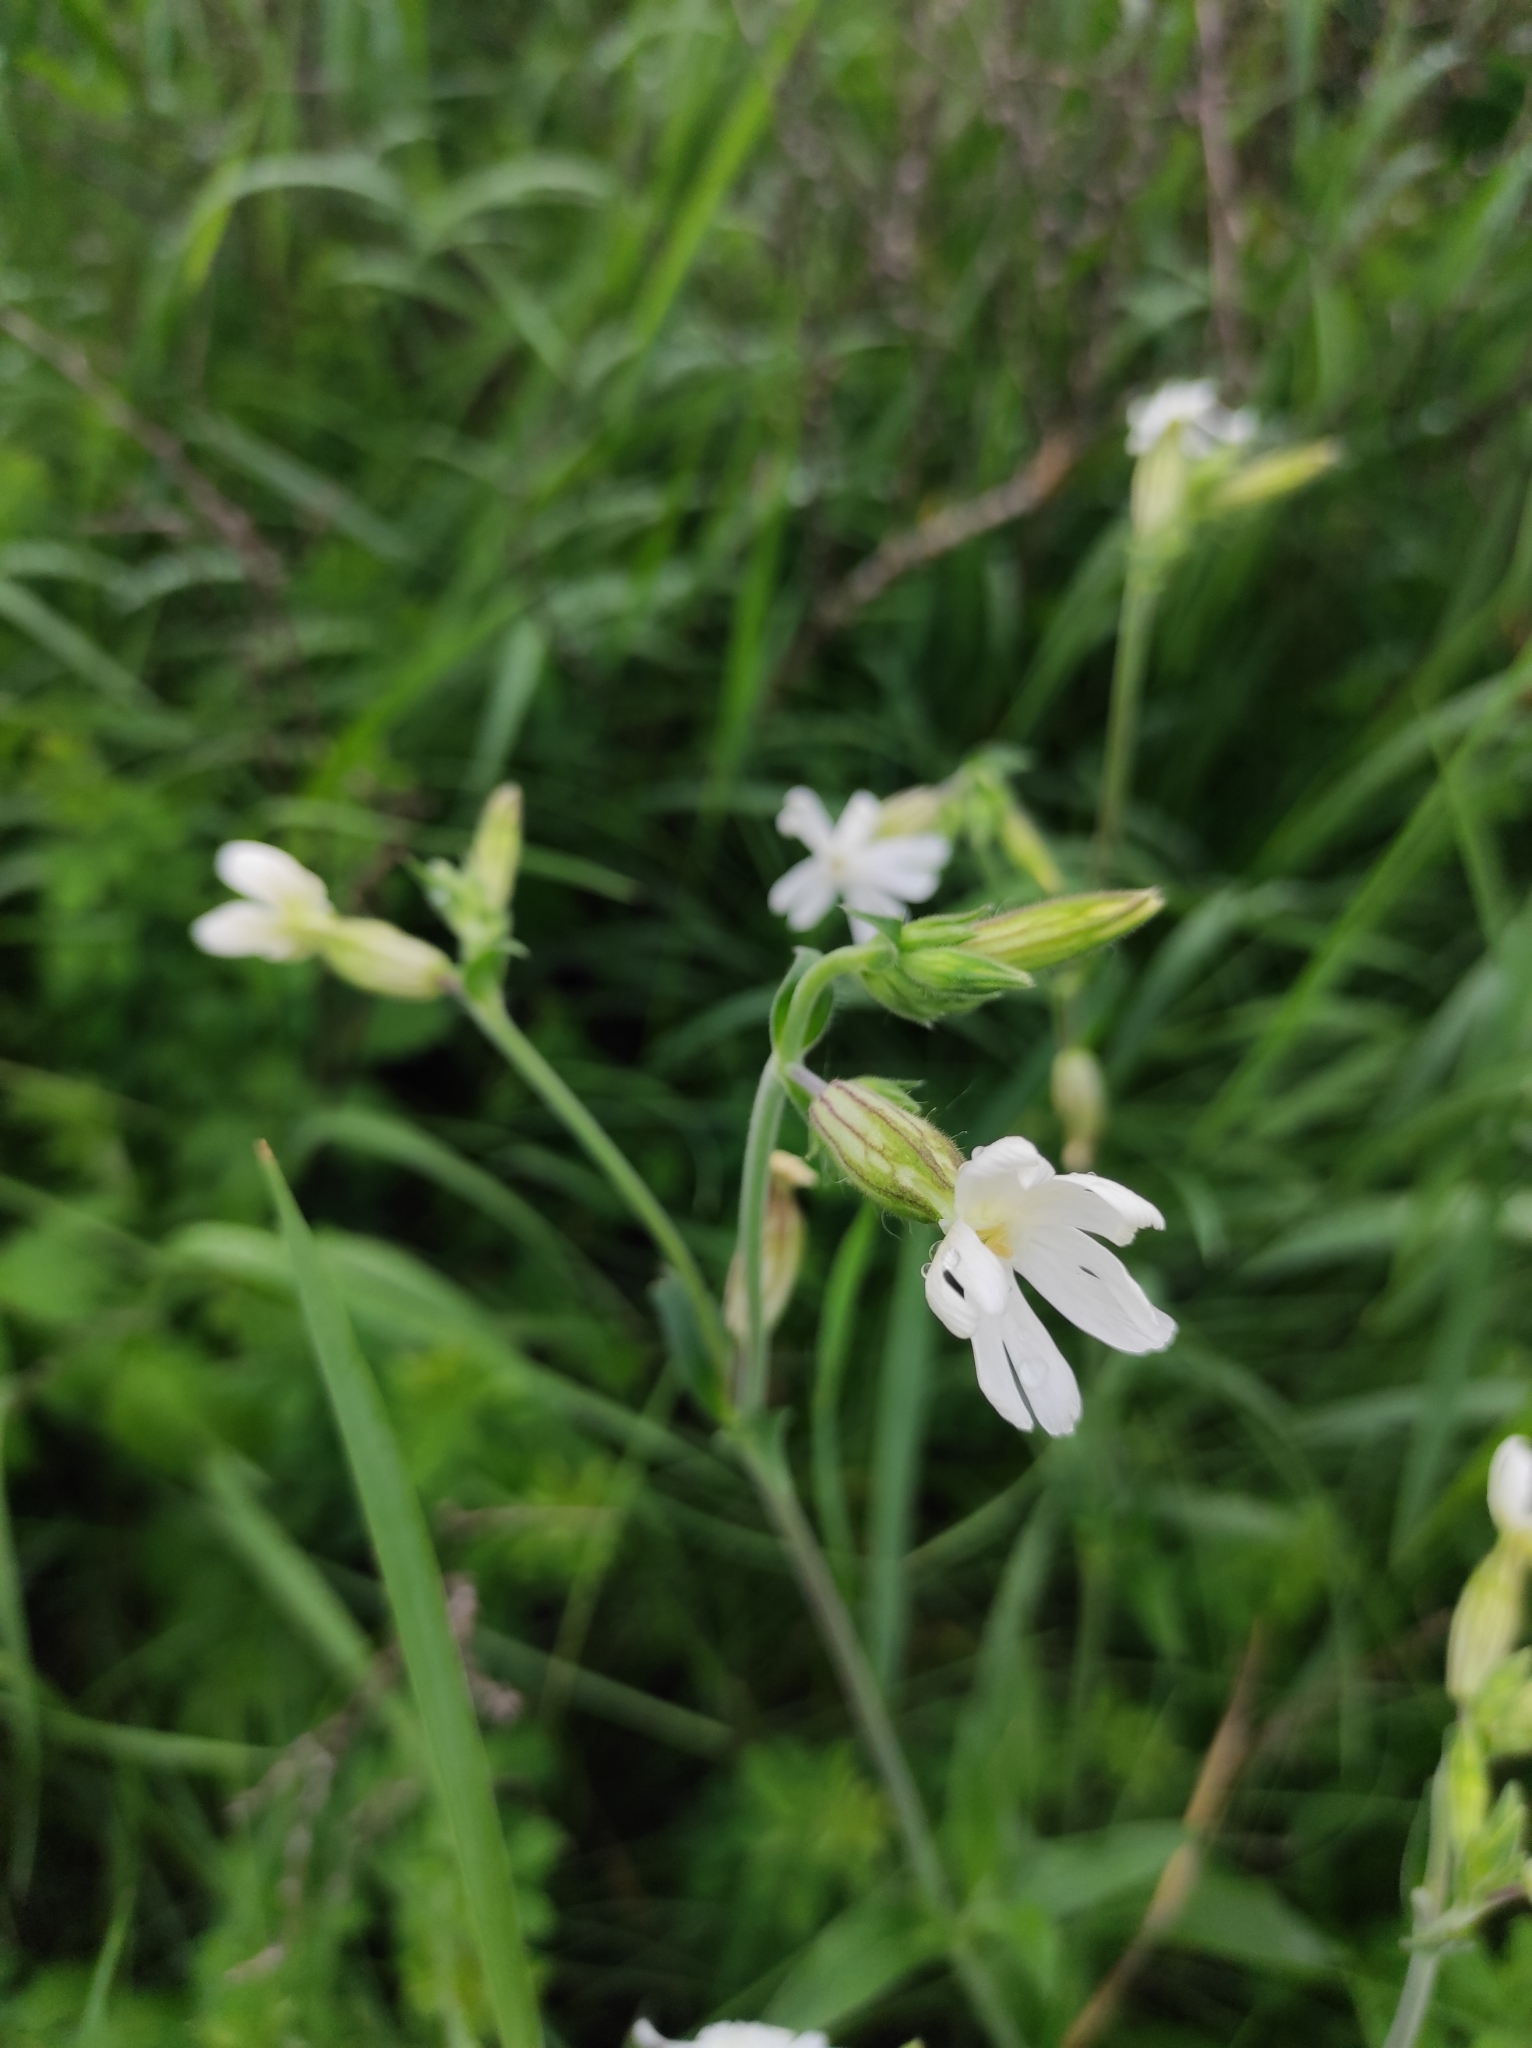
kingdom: Plantae
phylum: Tracheophyta
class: Magnoliopsida
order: Caryophyllales
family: Caryophyllaceae
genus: Silene
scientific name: Silene latifolia
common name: White campion
